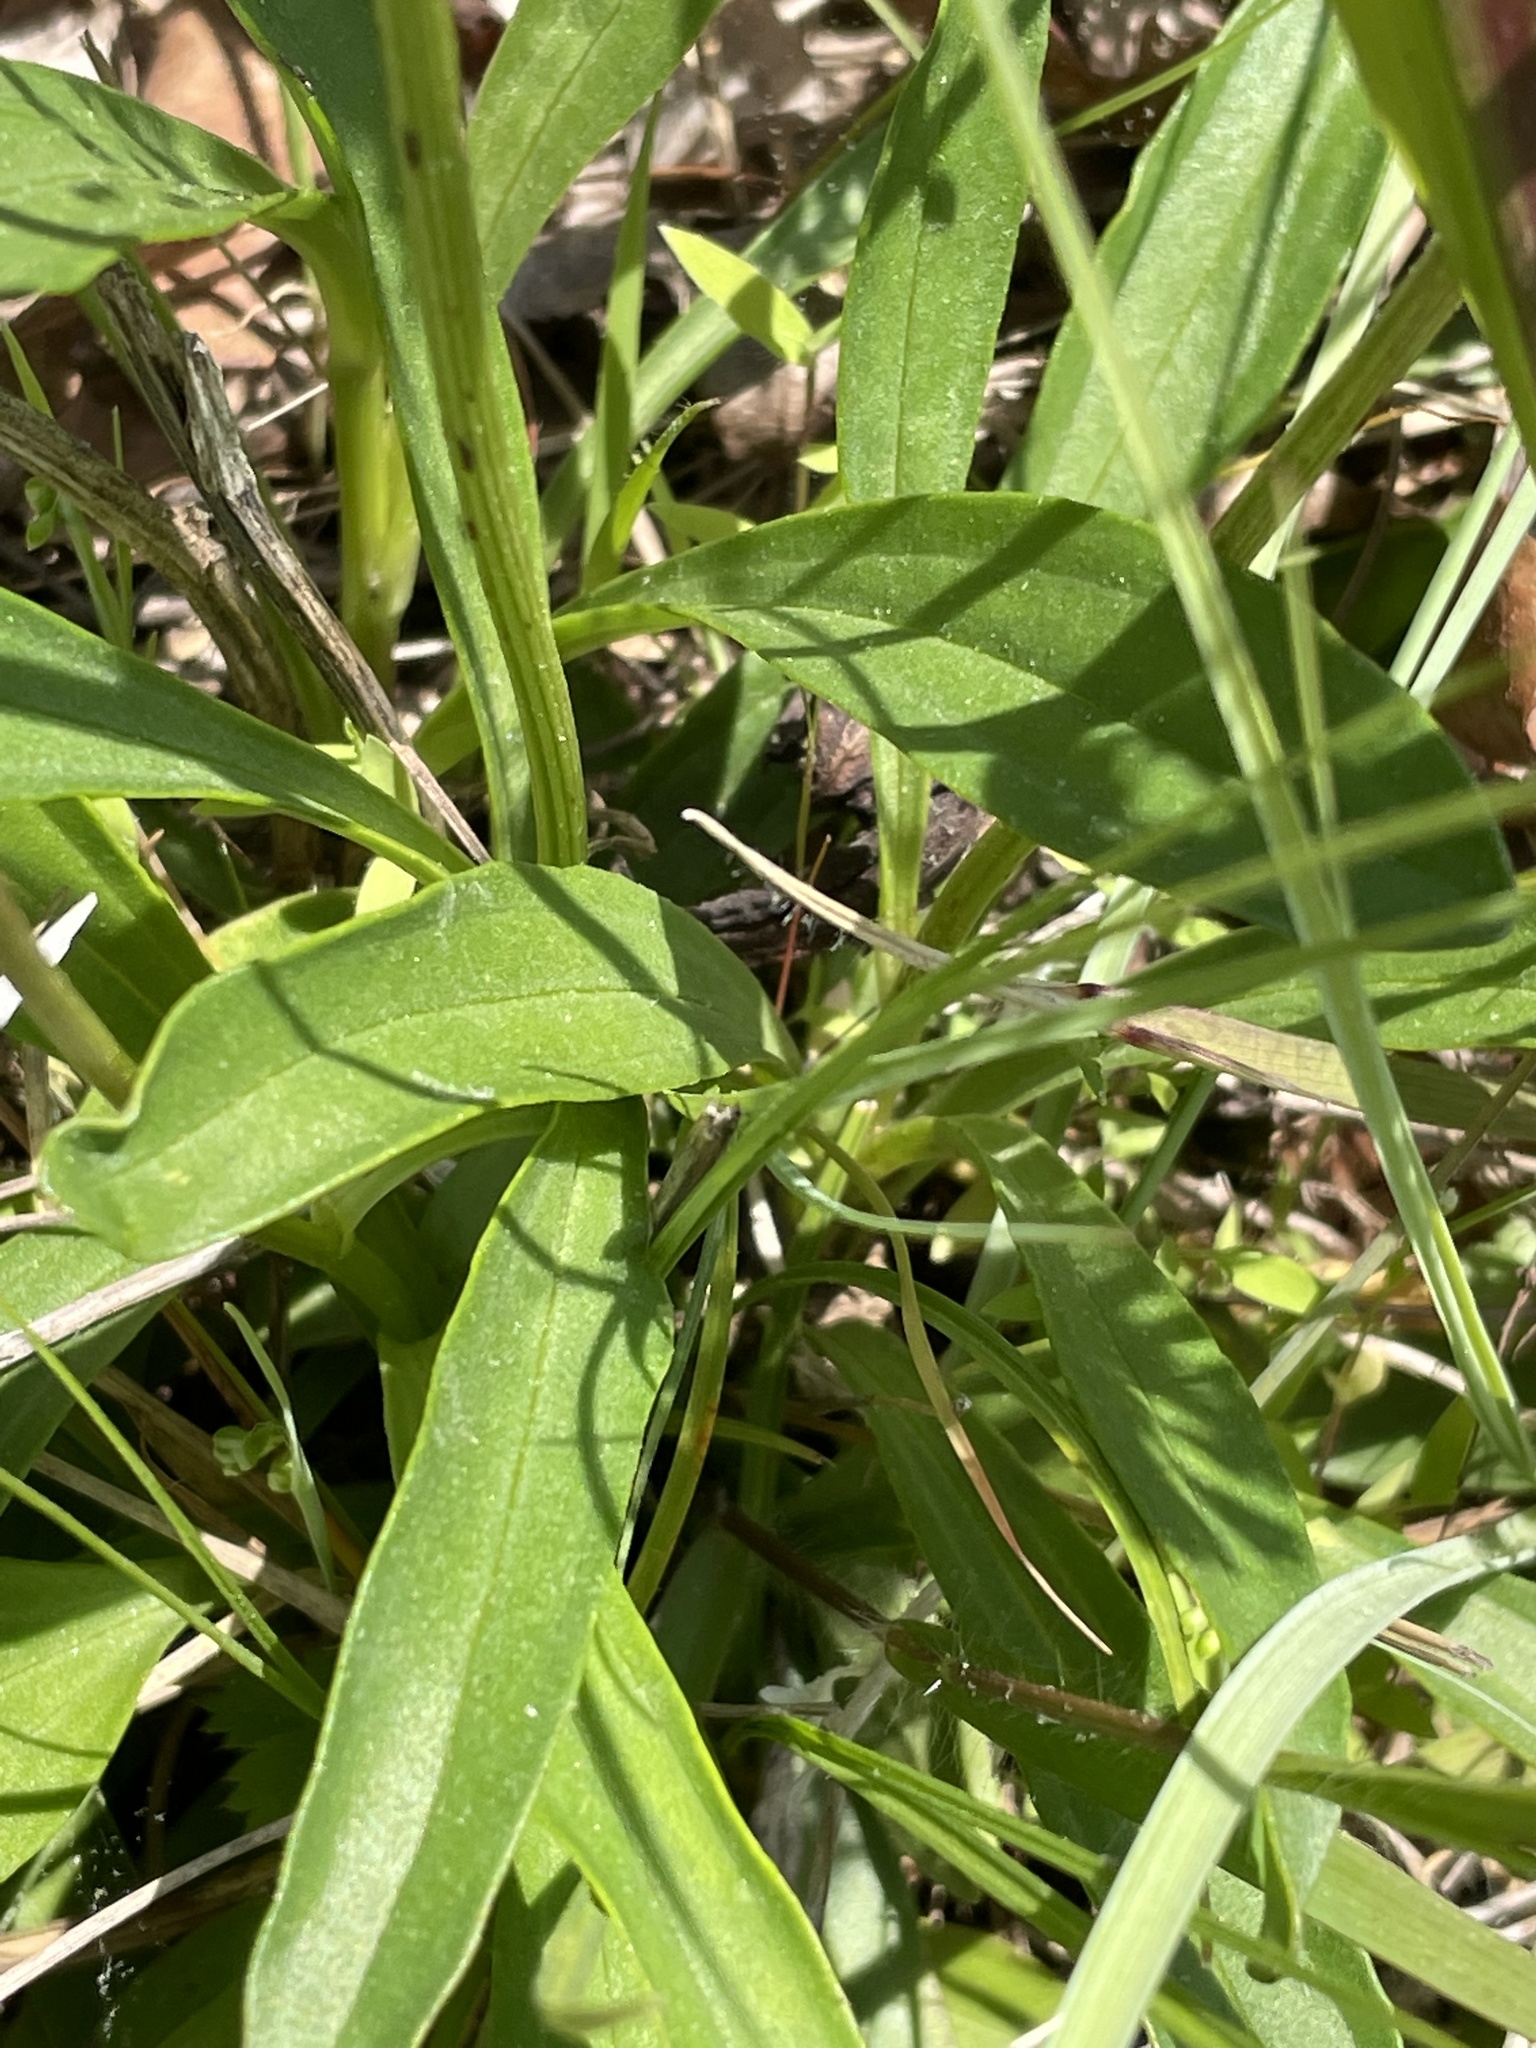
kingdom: Plantae
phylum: Tracheophyta
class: Magnoliopsida
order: Asterales
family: Asteraceae
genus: Marshallia
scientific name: Marshallia obovata
